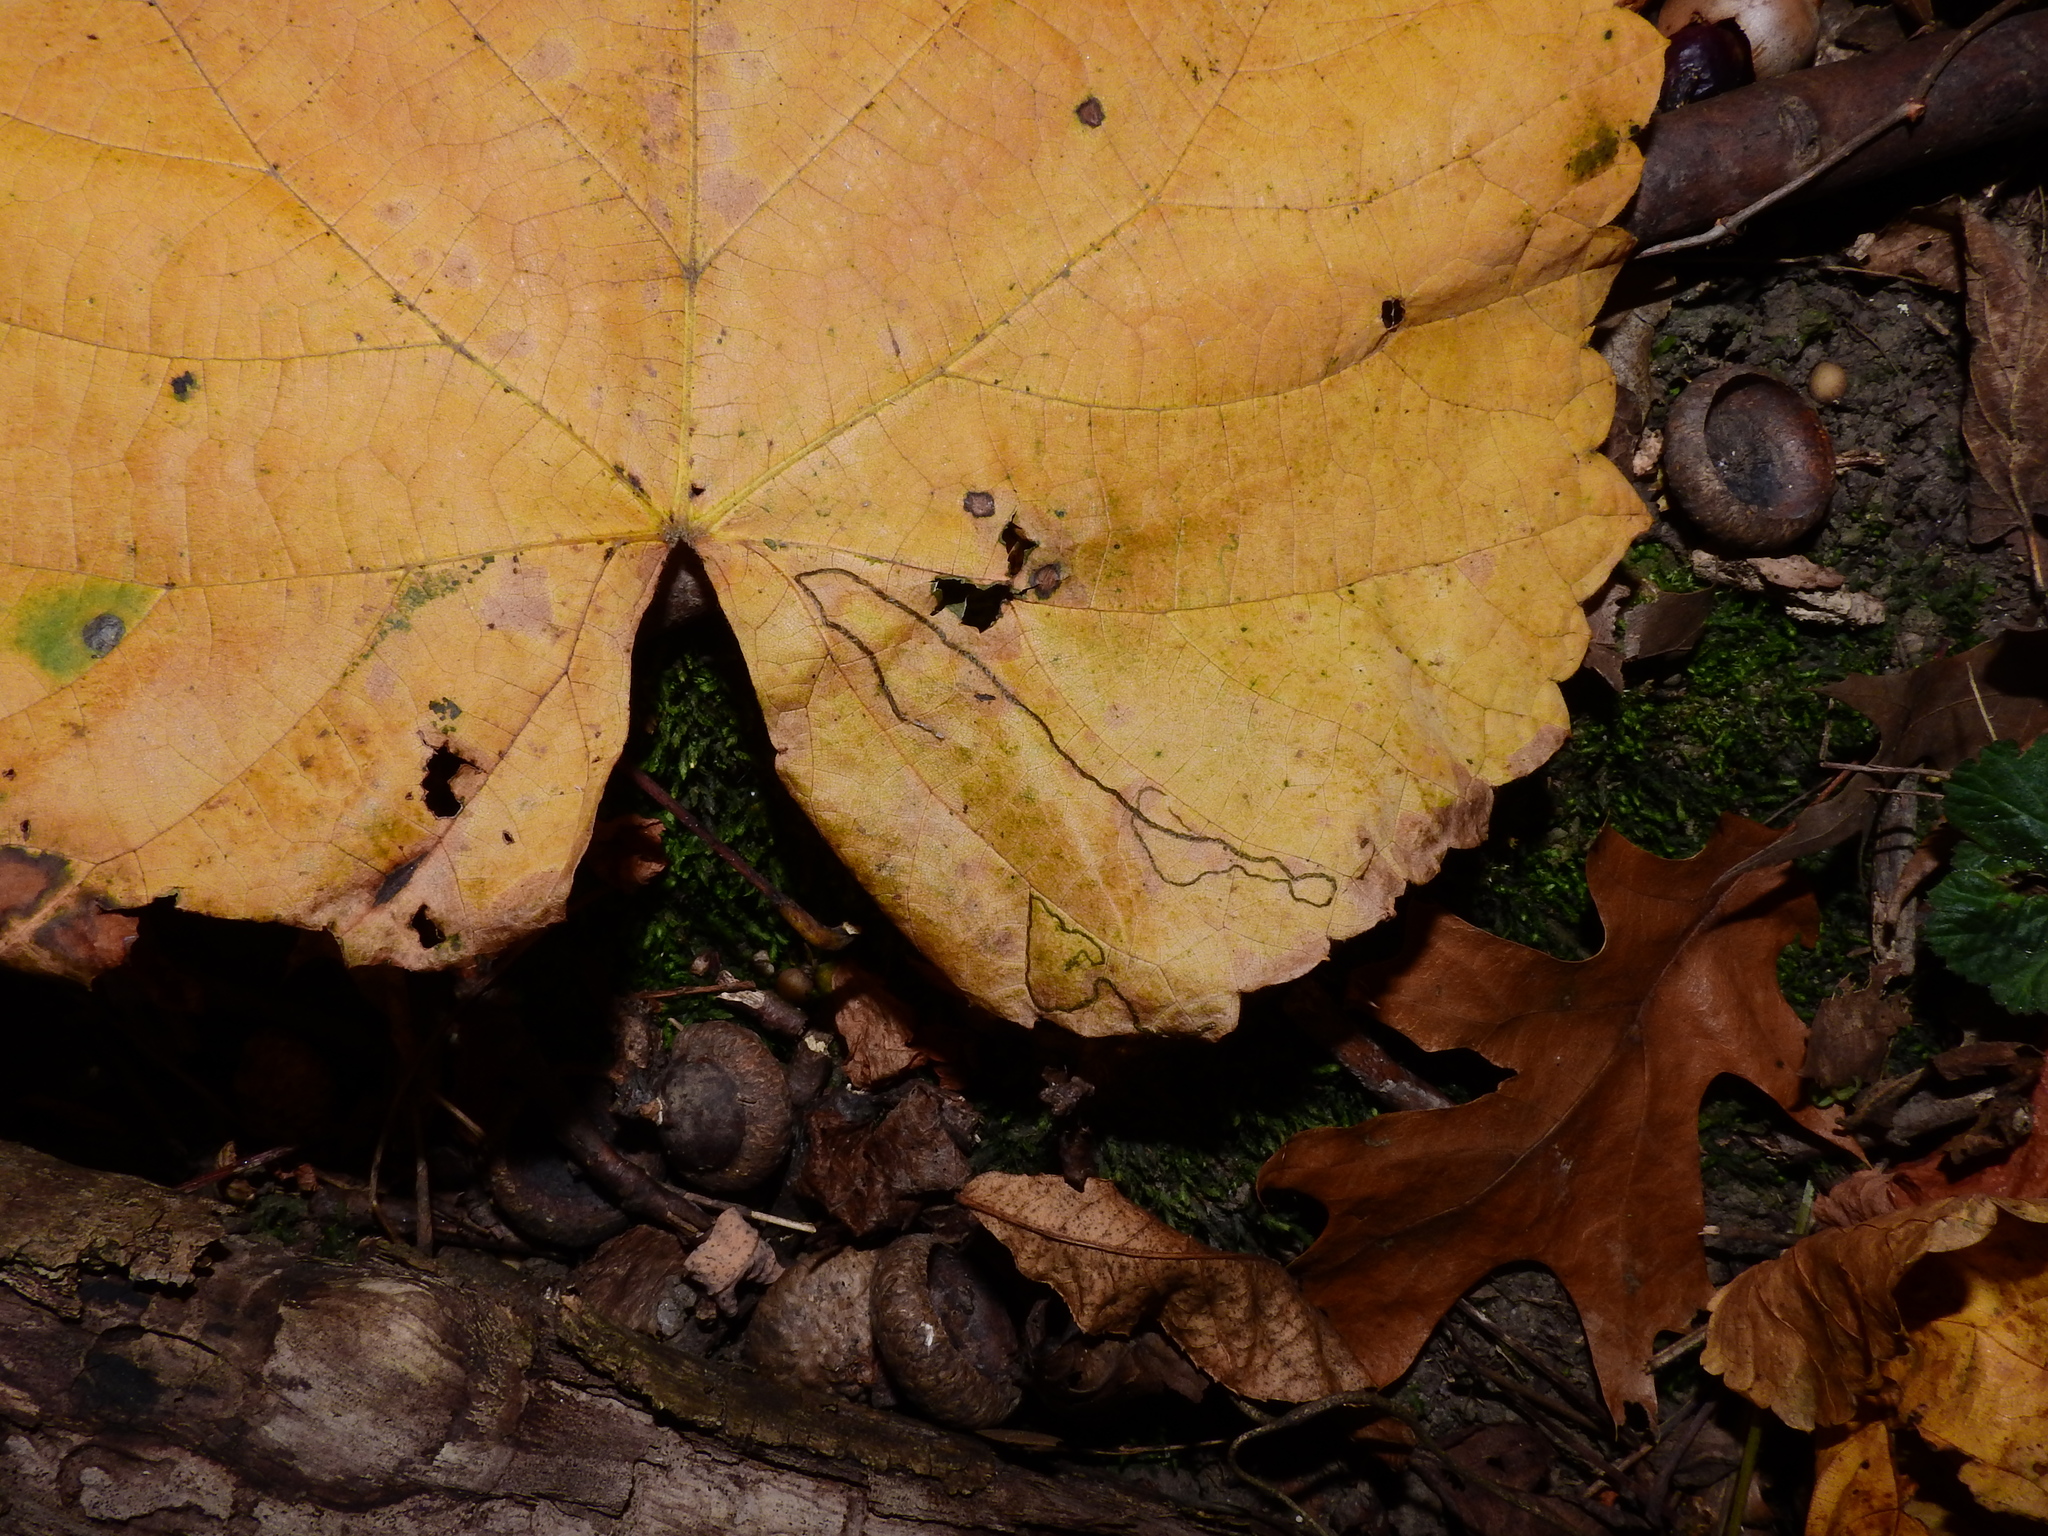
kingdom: Animalia
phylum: Arthropoda
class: Insecta
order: Lepidoptera
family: Gracillariidae
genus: Phyllocnistis
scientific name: Phyllocnistis vitifoliella
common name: Grape leaf-miner moth
